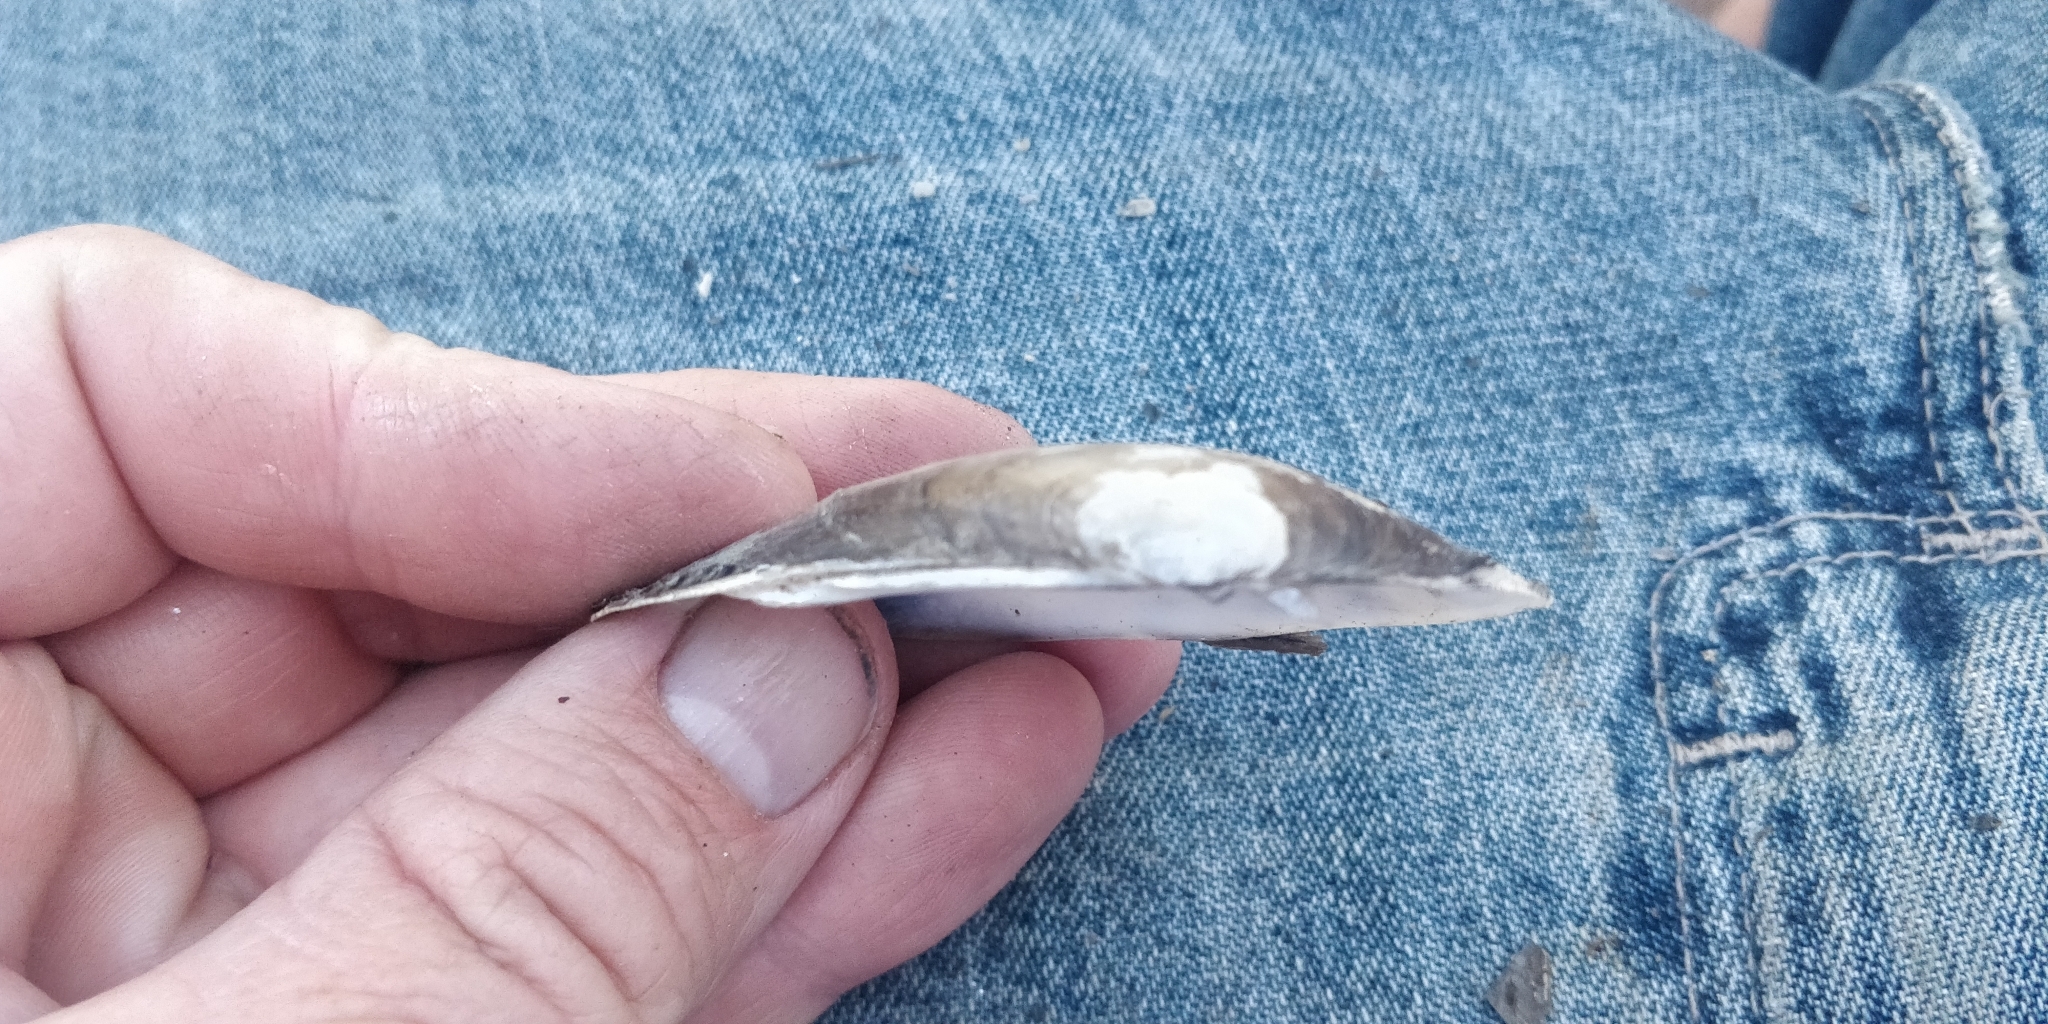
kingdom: Animalia
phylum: Mollusca
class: Bivalvia
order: Unionida
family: Unionidae
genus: Lampsilis
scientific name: Lampsilis siliquoidea
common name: Fatmucket
